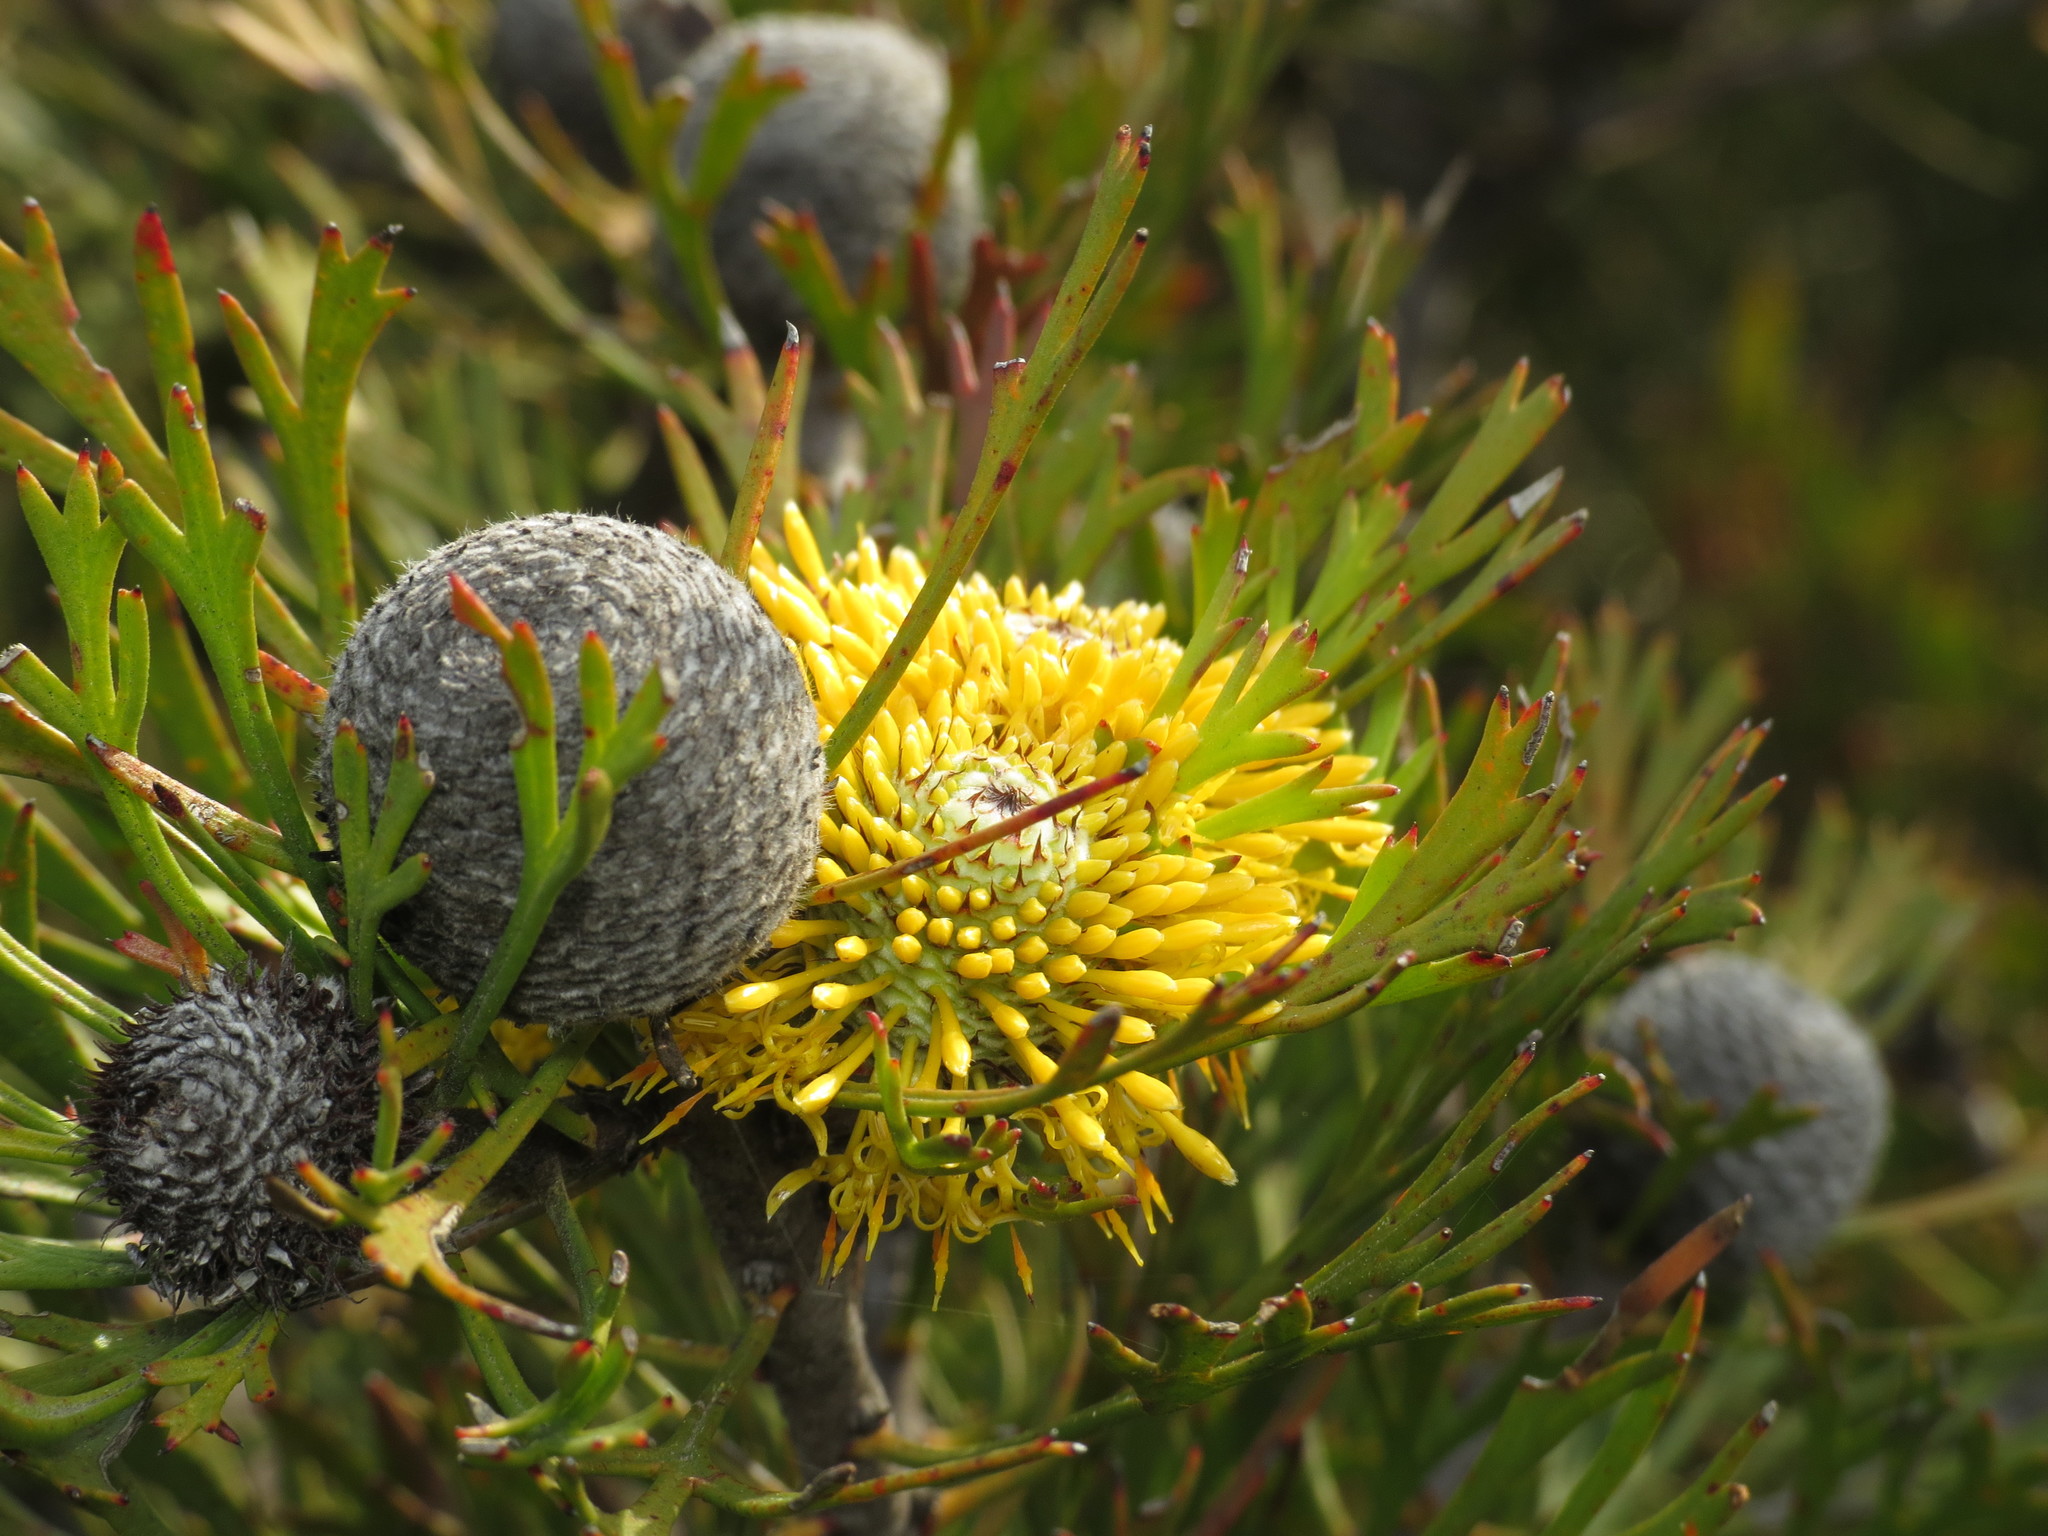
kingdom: Plantae
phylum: Tracheophyta
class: Magnoliopsida
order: Proteales
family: Proteaceae
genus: Isopogon
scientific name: Isopogon anemonifolius
